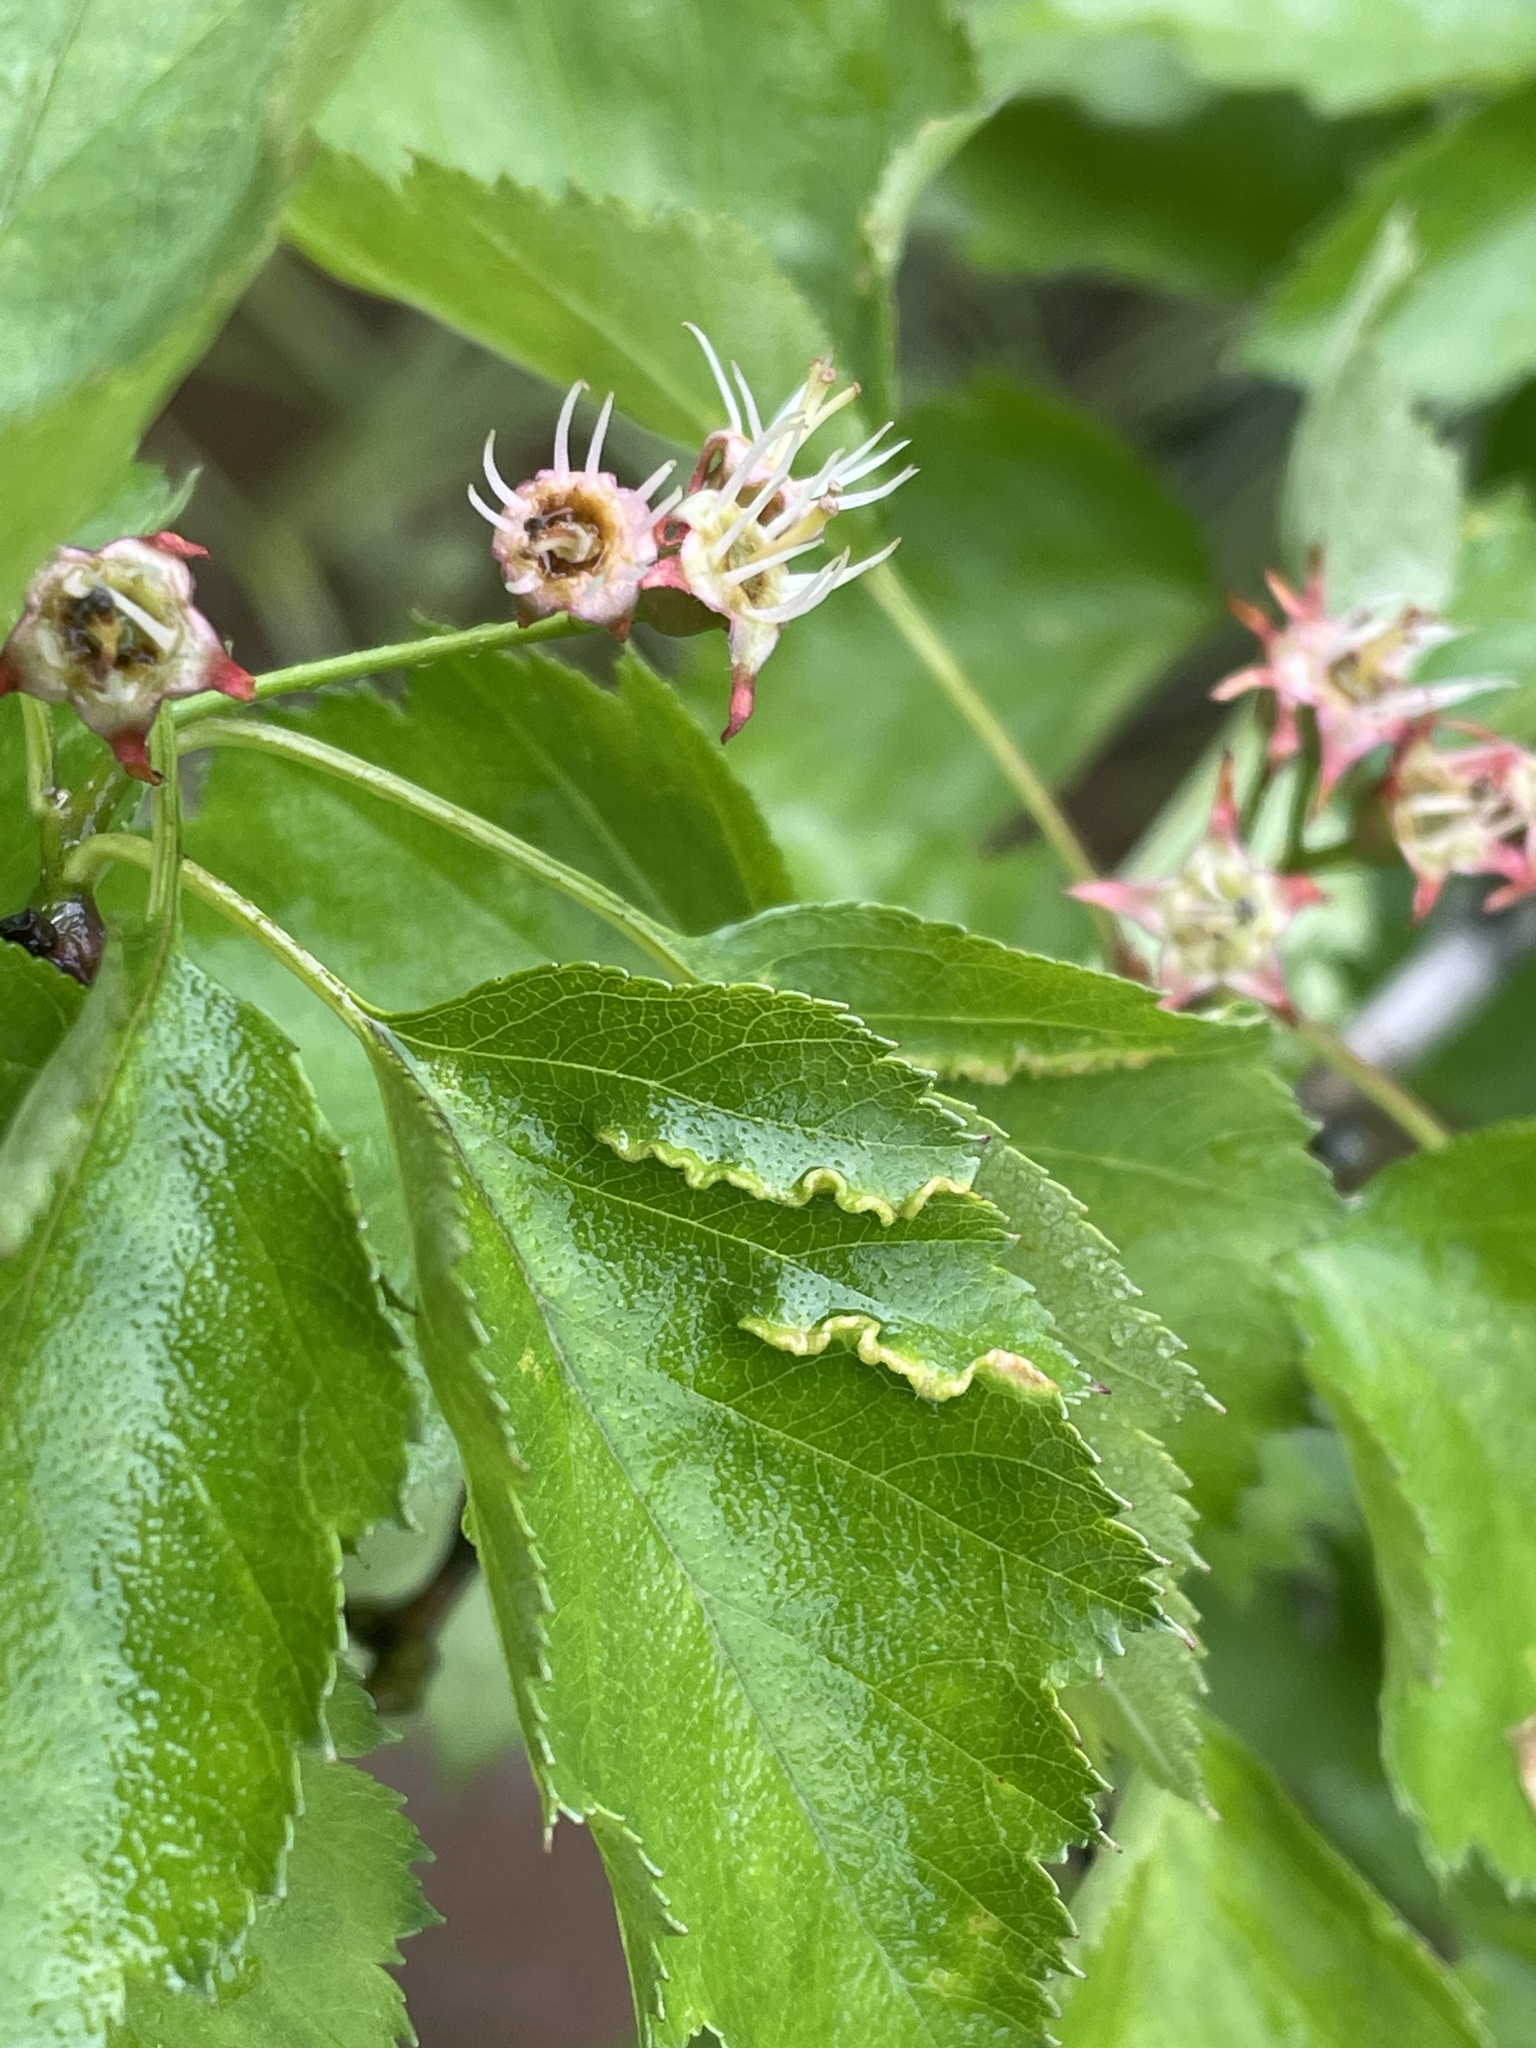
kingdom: Animalia
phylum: Arthropoda
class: Insecta
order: Diptera
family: Cecidomyiidae
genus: Blaesodiplosis
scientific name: Blaesodiplosis crataegifolia
